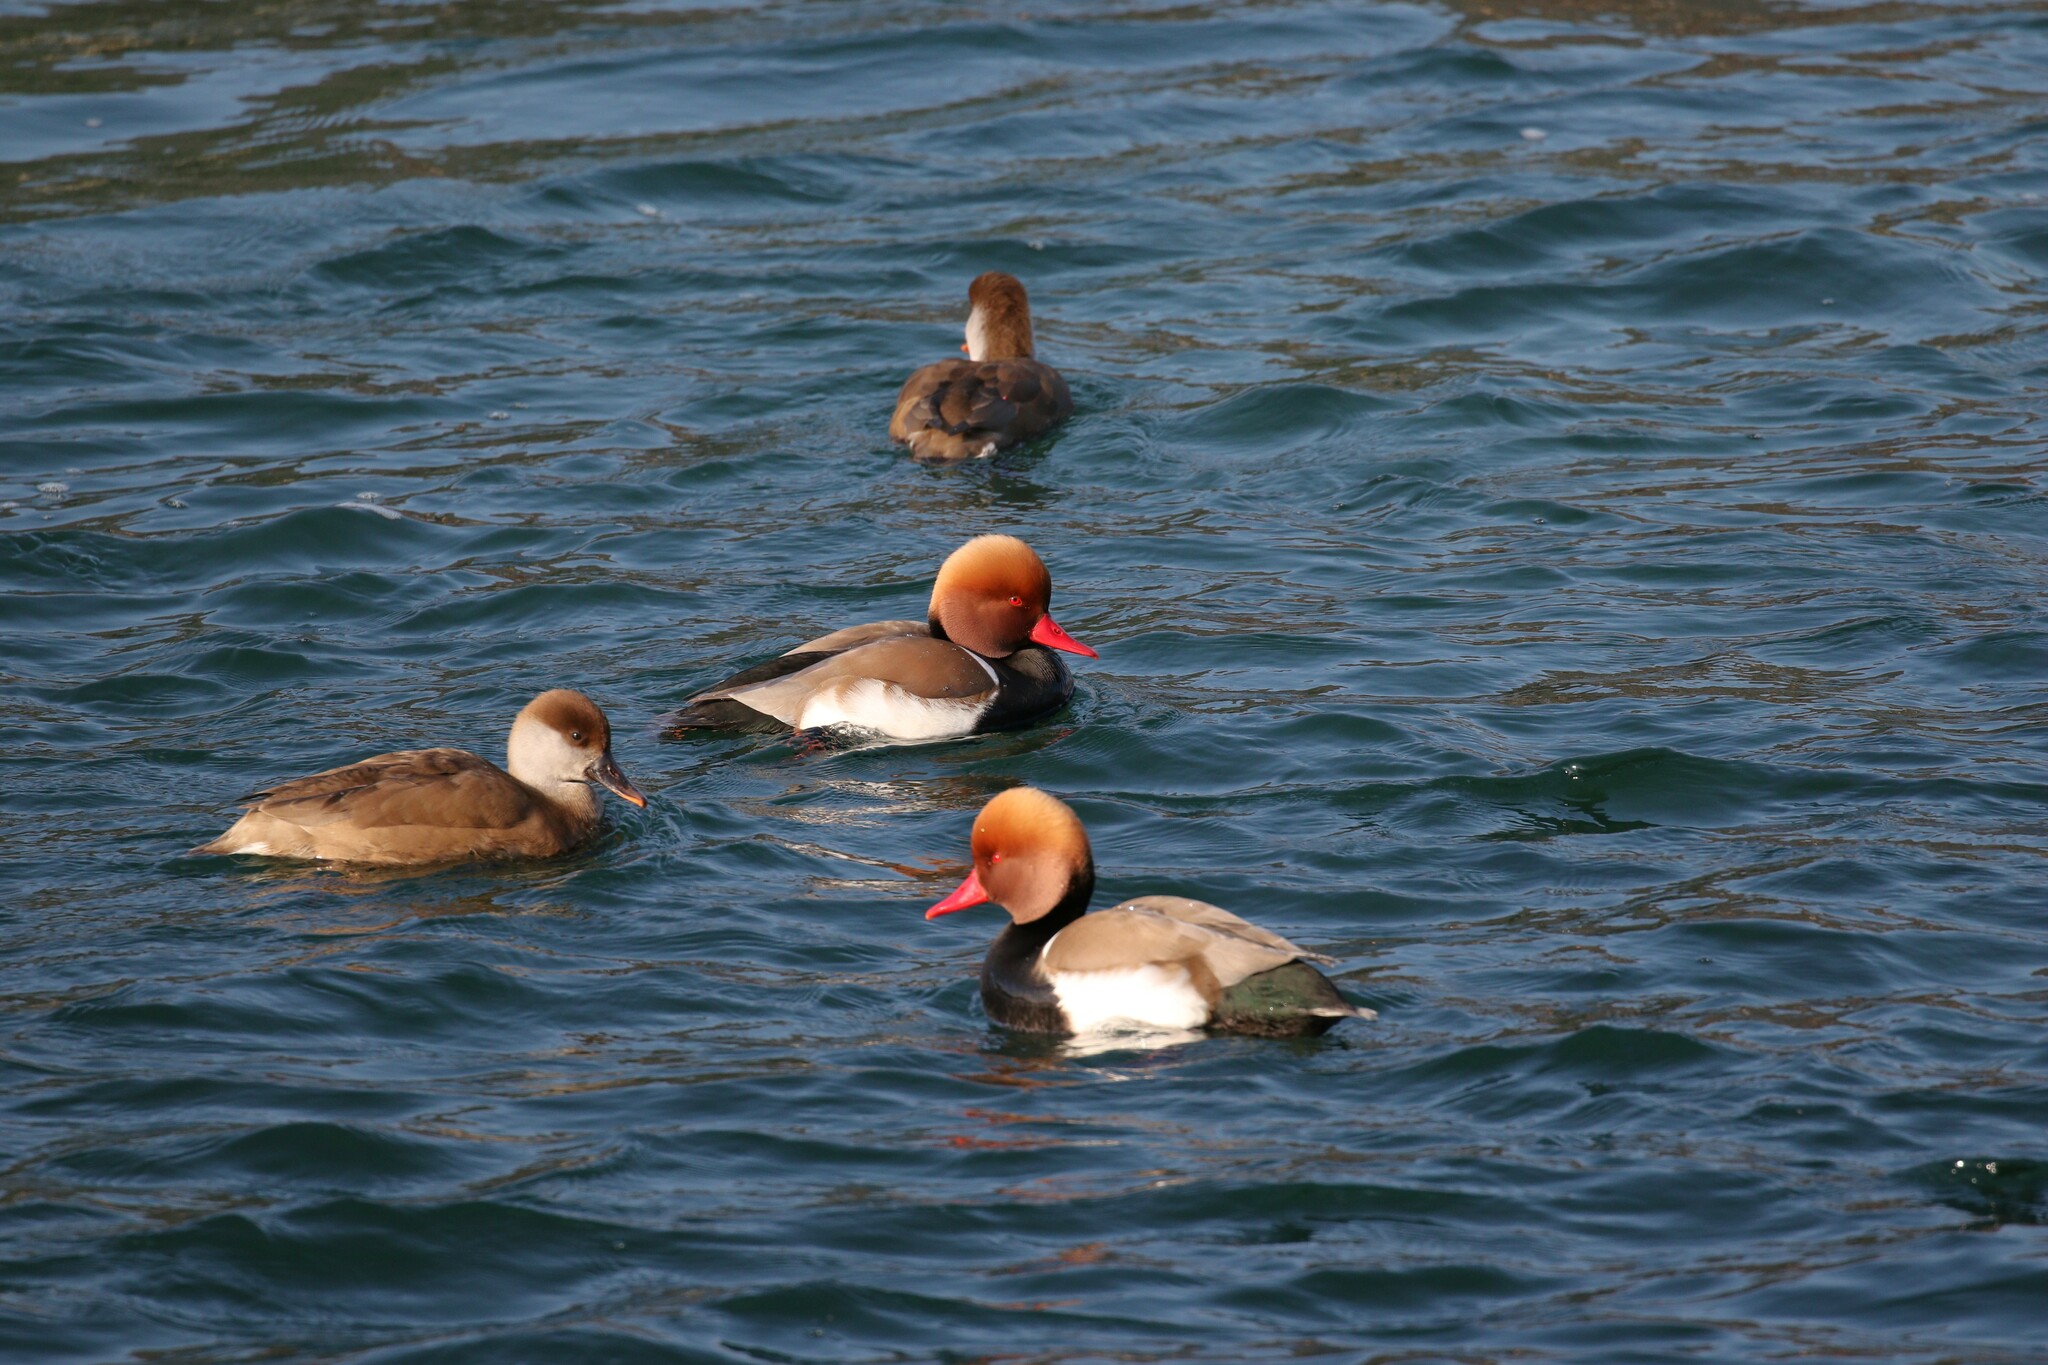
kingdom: Animalia
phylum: Chordata
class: Aves
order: Anseriformes
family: Anatidae
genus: Netta
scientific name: Netta rufina
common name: Red-crested pochard
